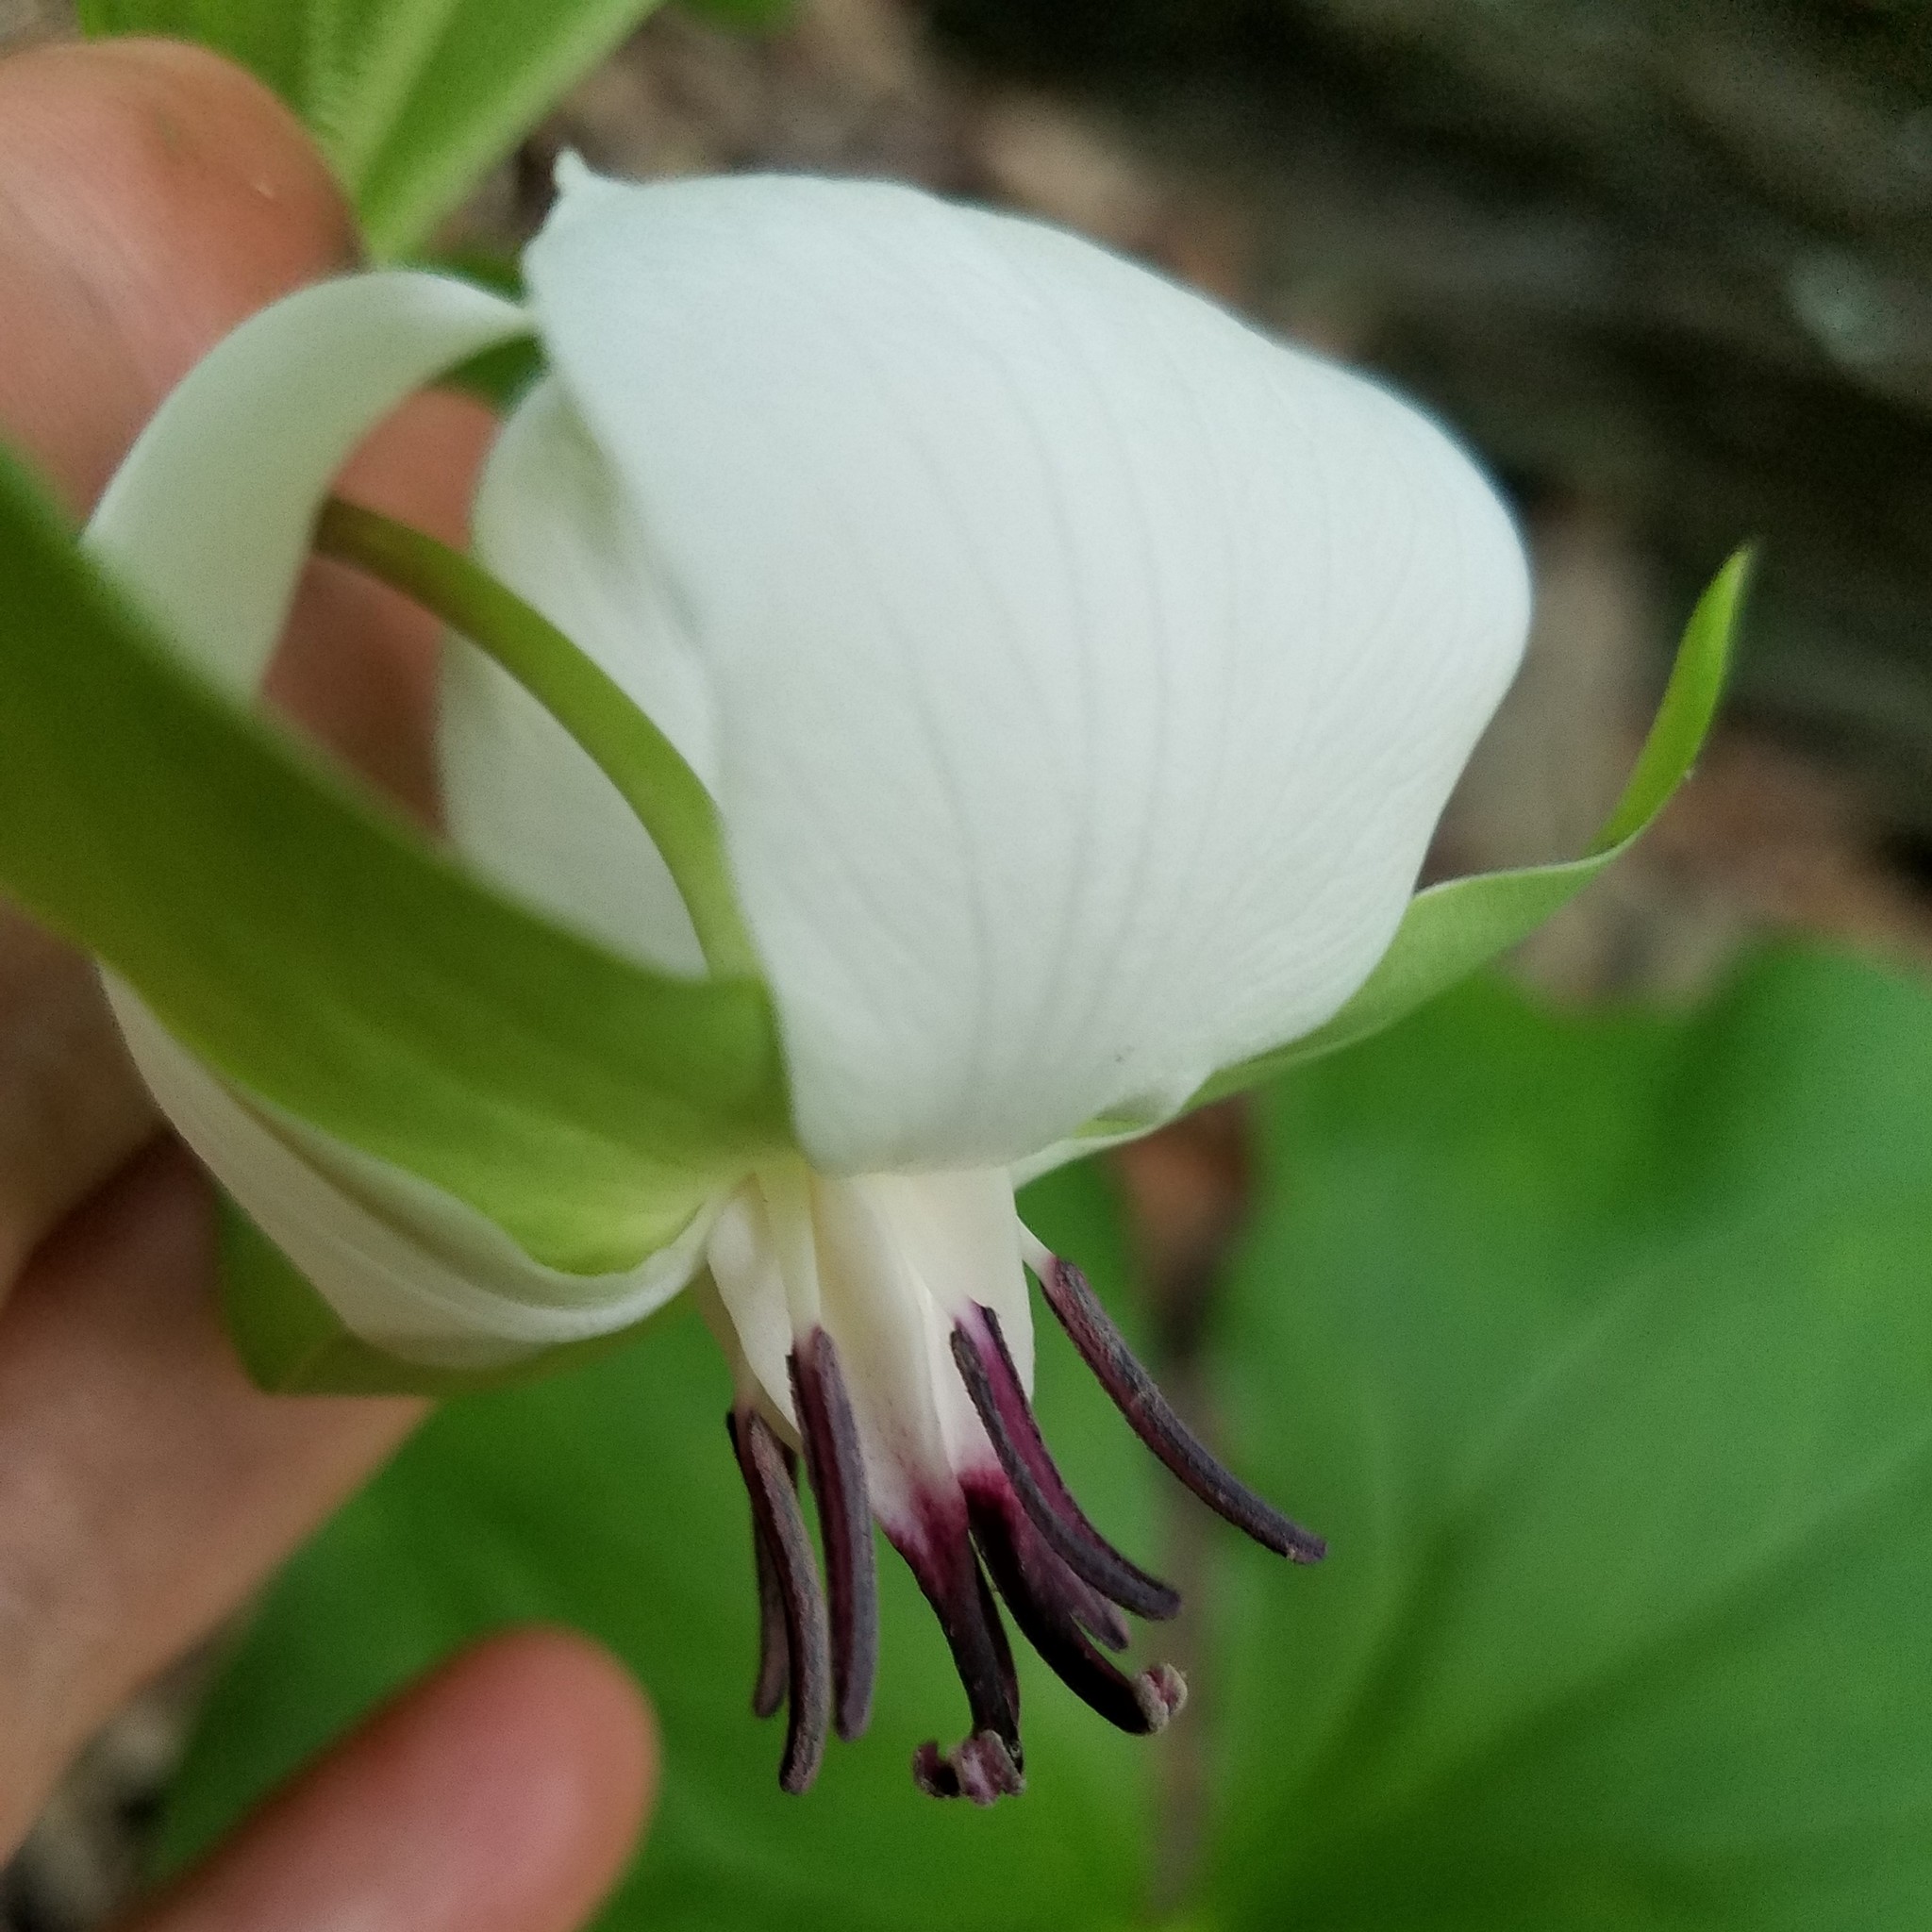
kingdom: Plantae
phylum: Tracheophyta
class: Liliopsida
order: Liliales
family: Melanthiaceae
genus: Trillium
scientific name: Trillium rugelii
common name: Ill-scented trillium
